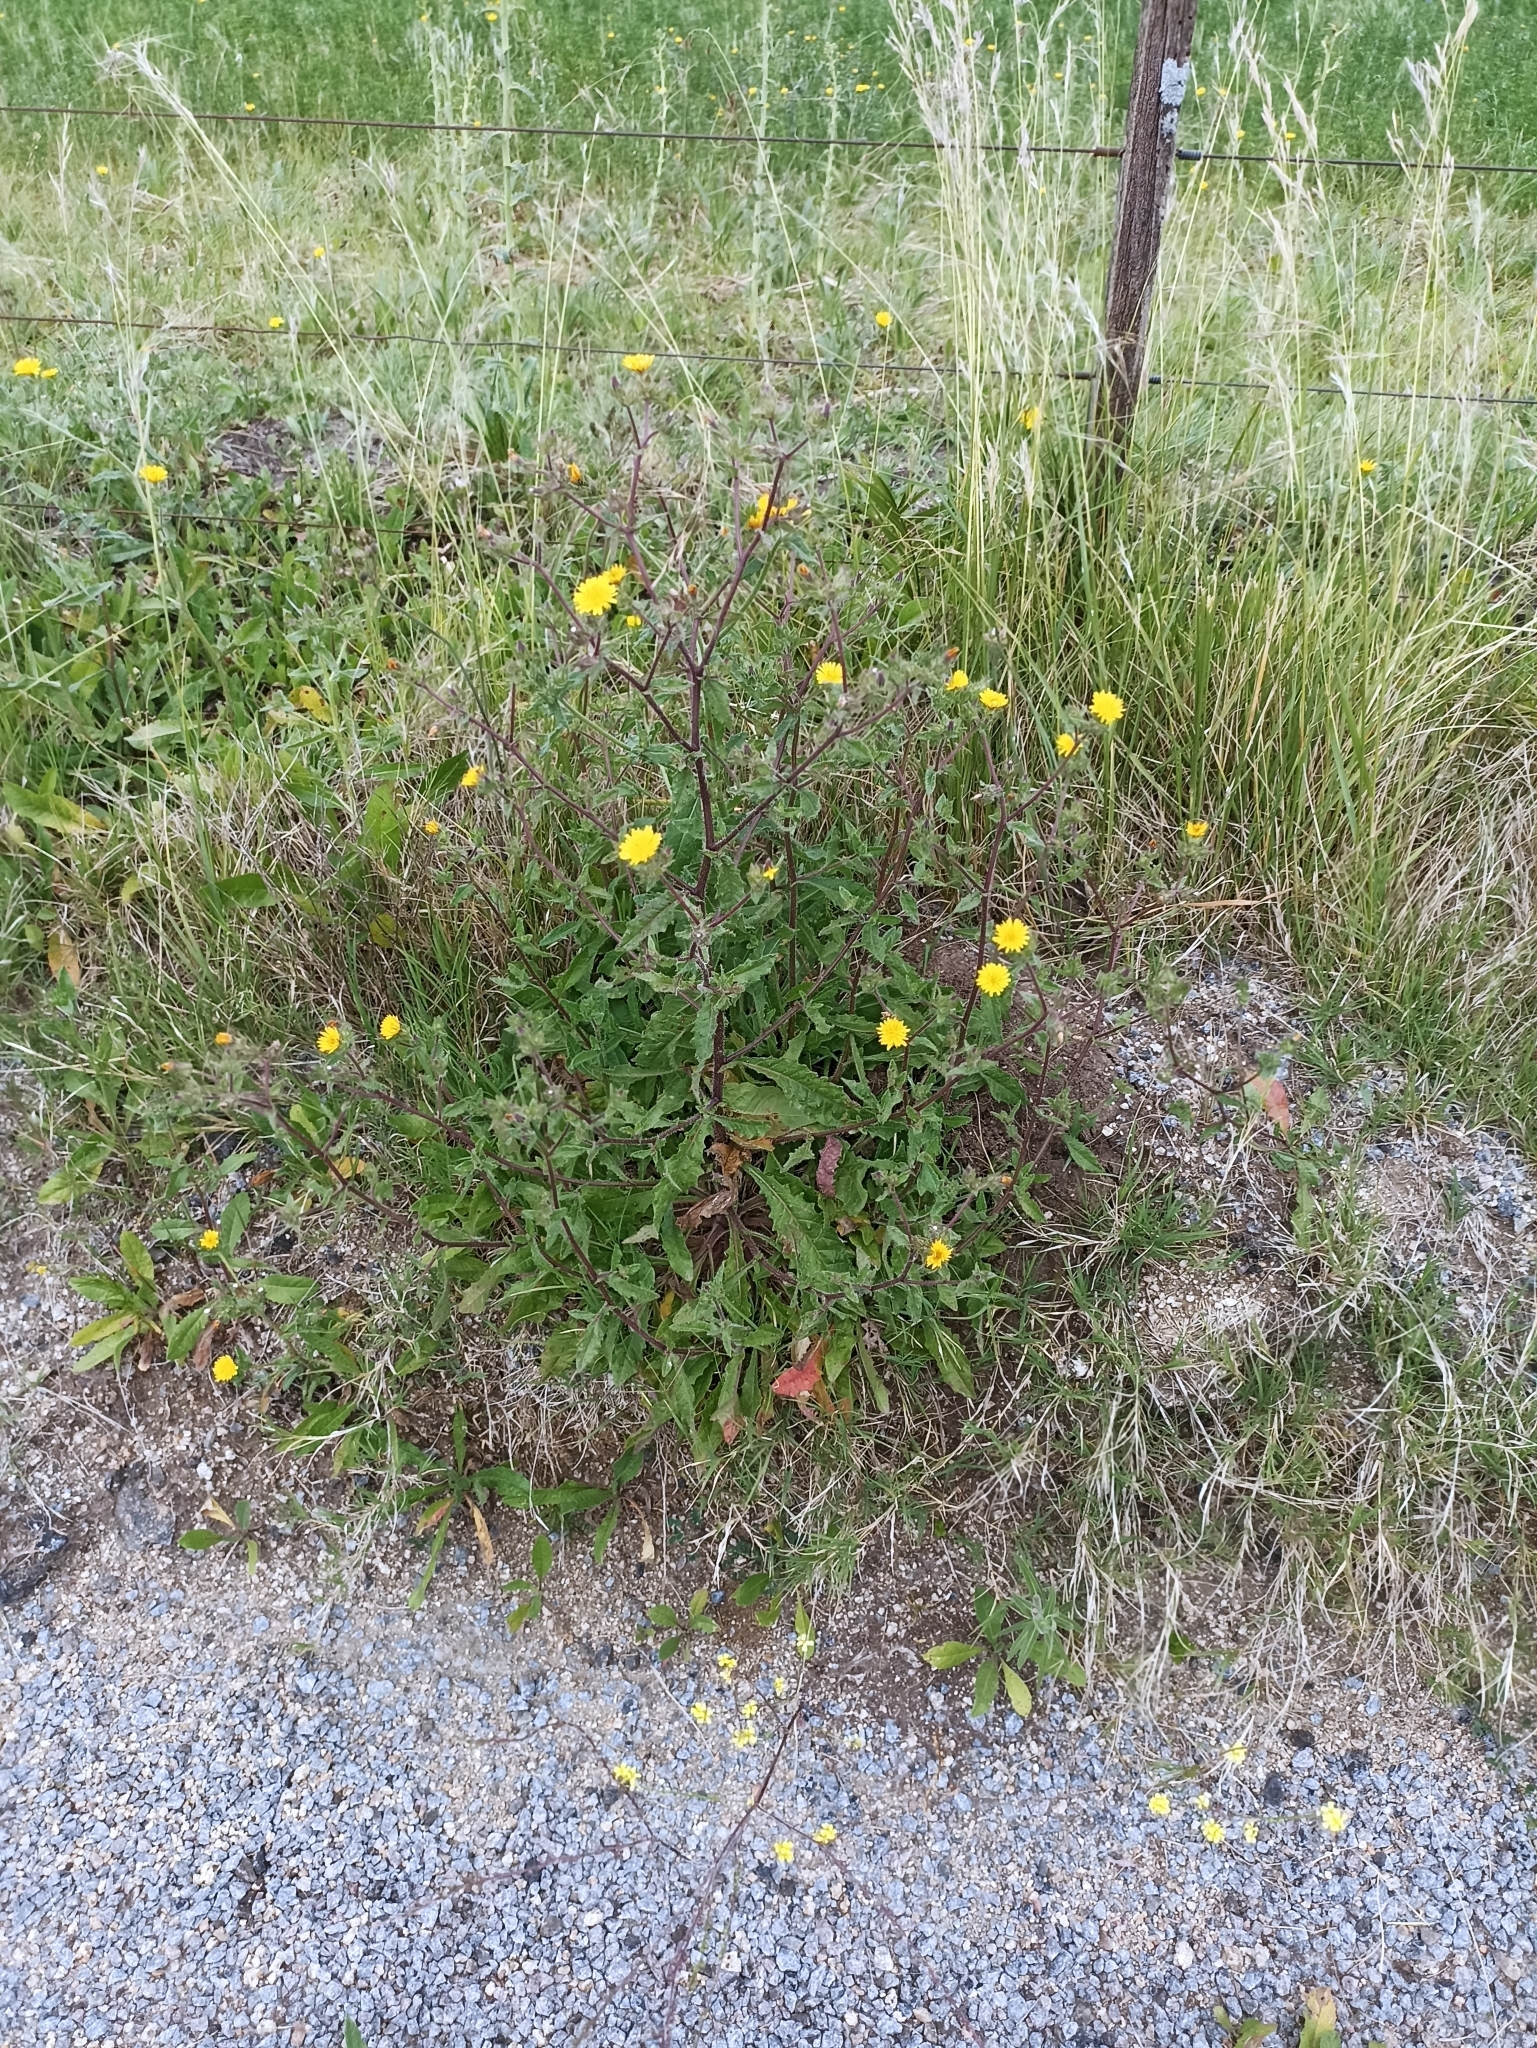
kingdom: Plantae
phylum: Tracheophyta
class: Magnoliopsida
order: Asterales
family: Asteraceae
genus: Helminthotheca
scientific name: Helminthotheca echioides
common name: Ox-tongue
